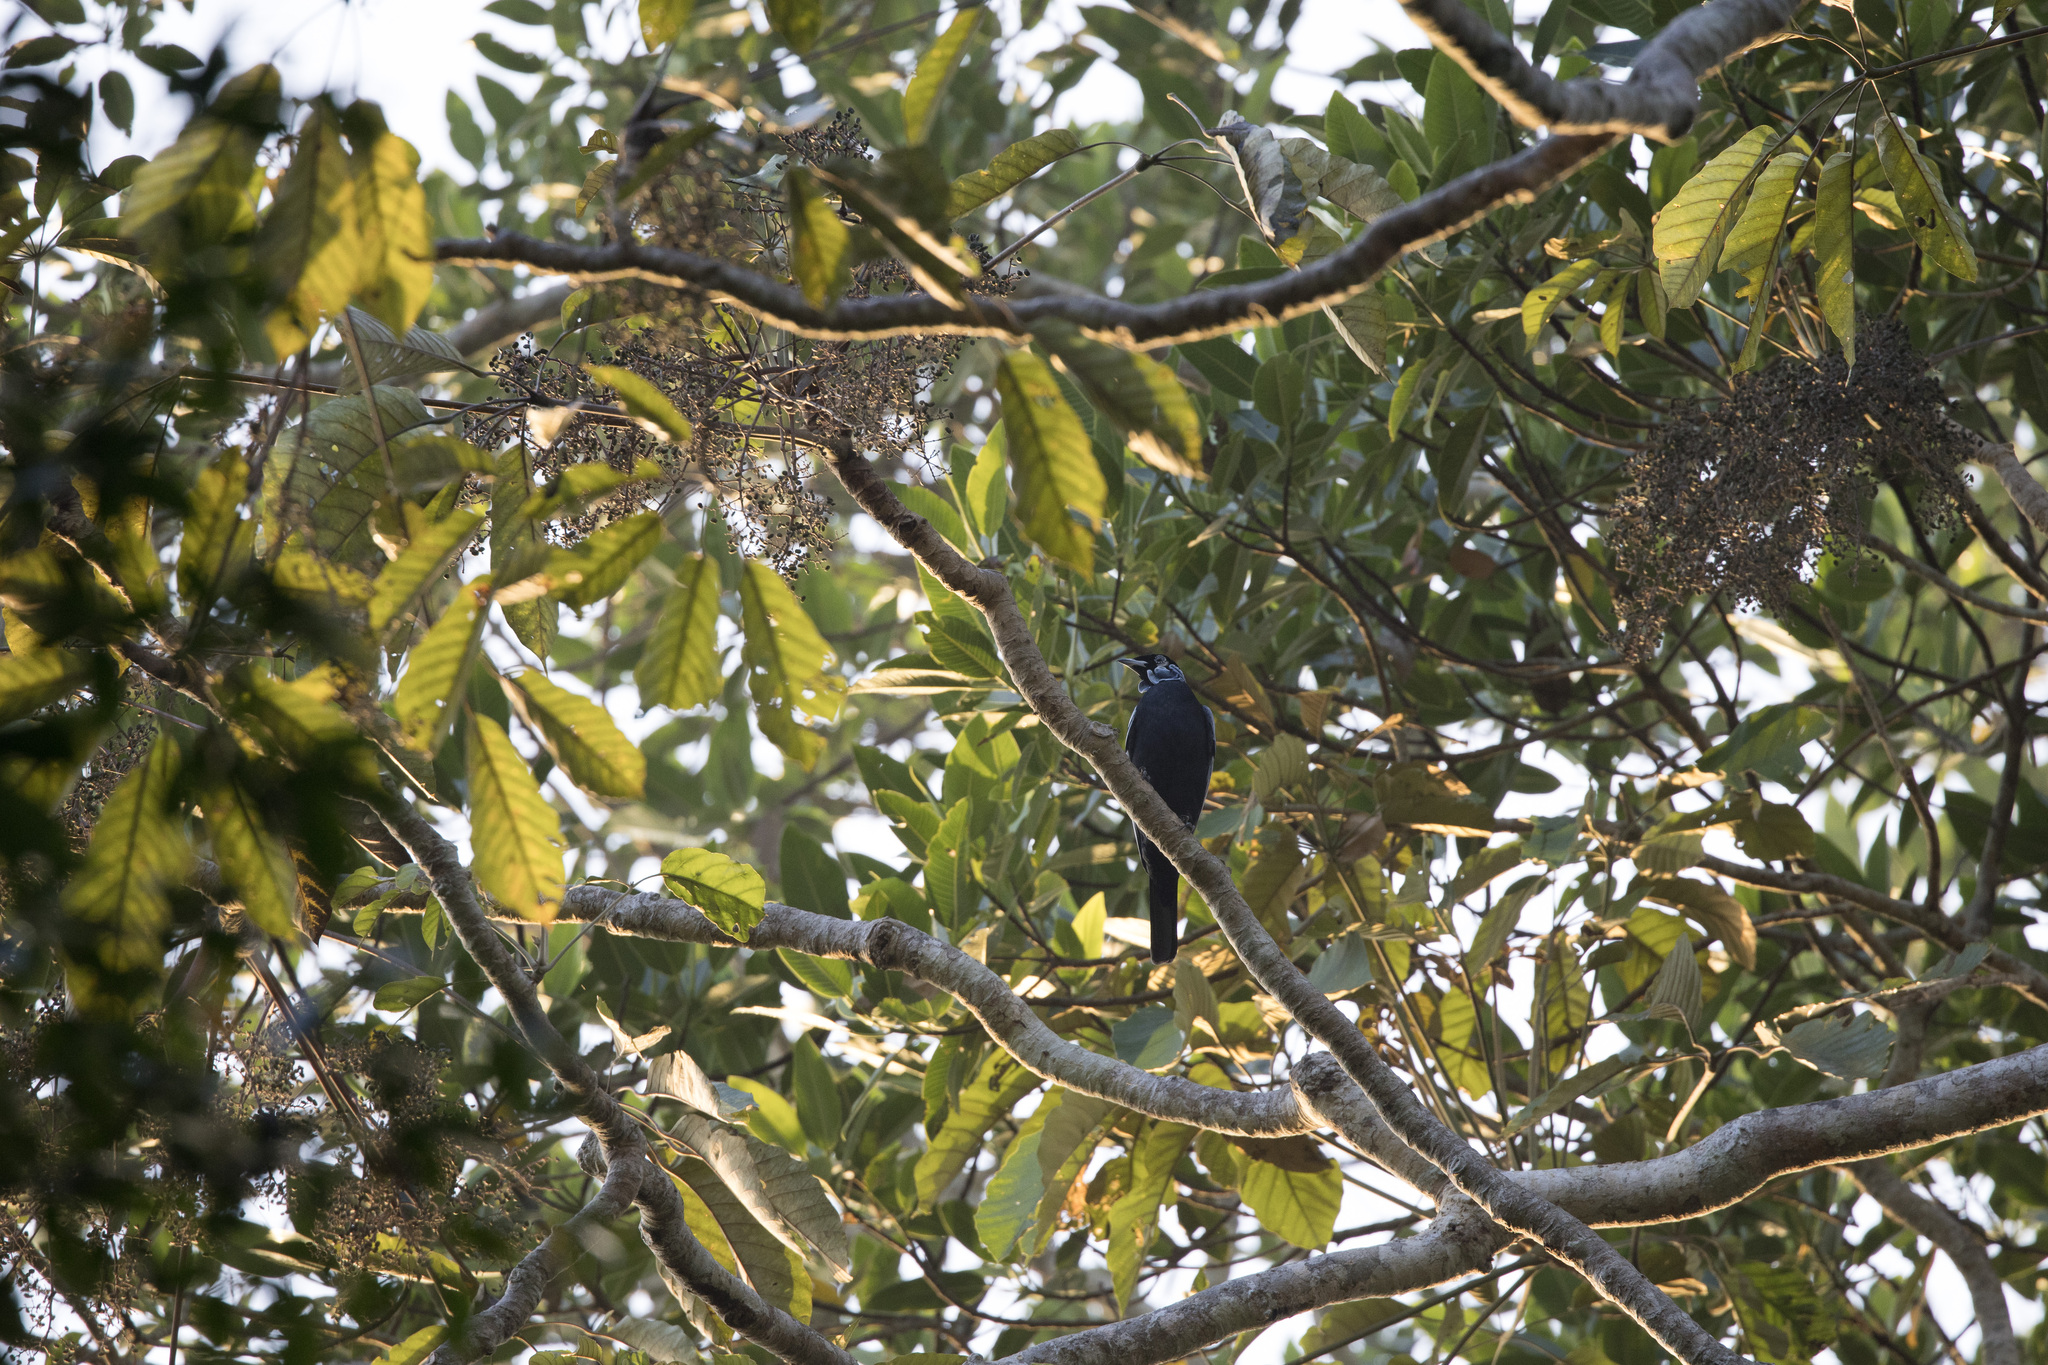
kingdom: Animalia
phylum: Chordata
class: Aves
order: Passeriformes
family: Cotingidae
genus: Gymnoderus
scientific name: Gymnoderus foetidus
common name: Bare-necked fruitcrow
